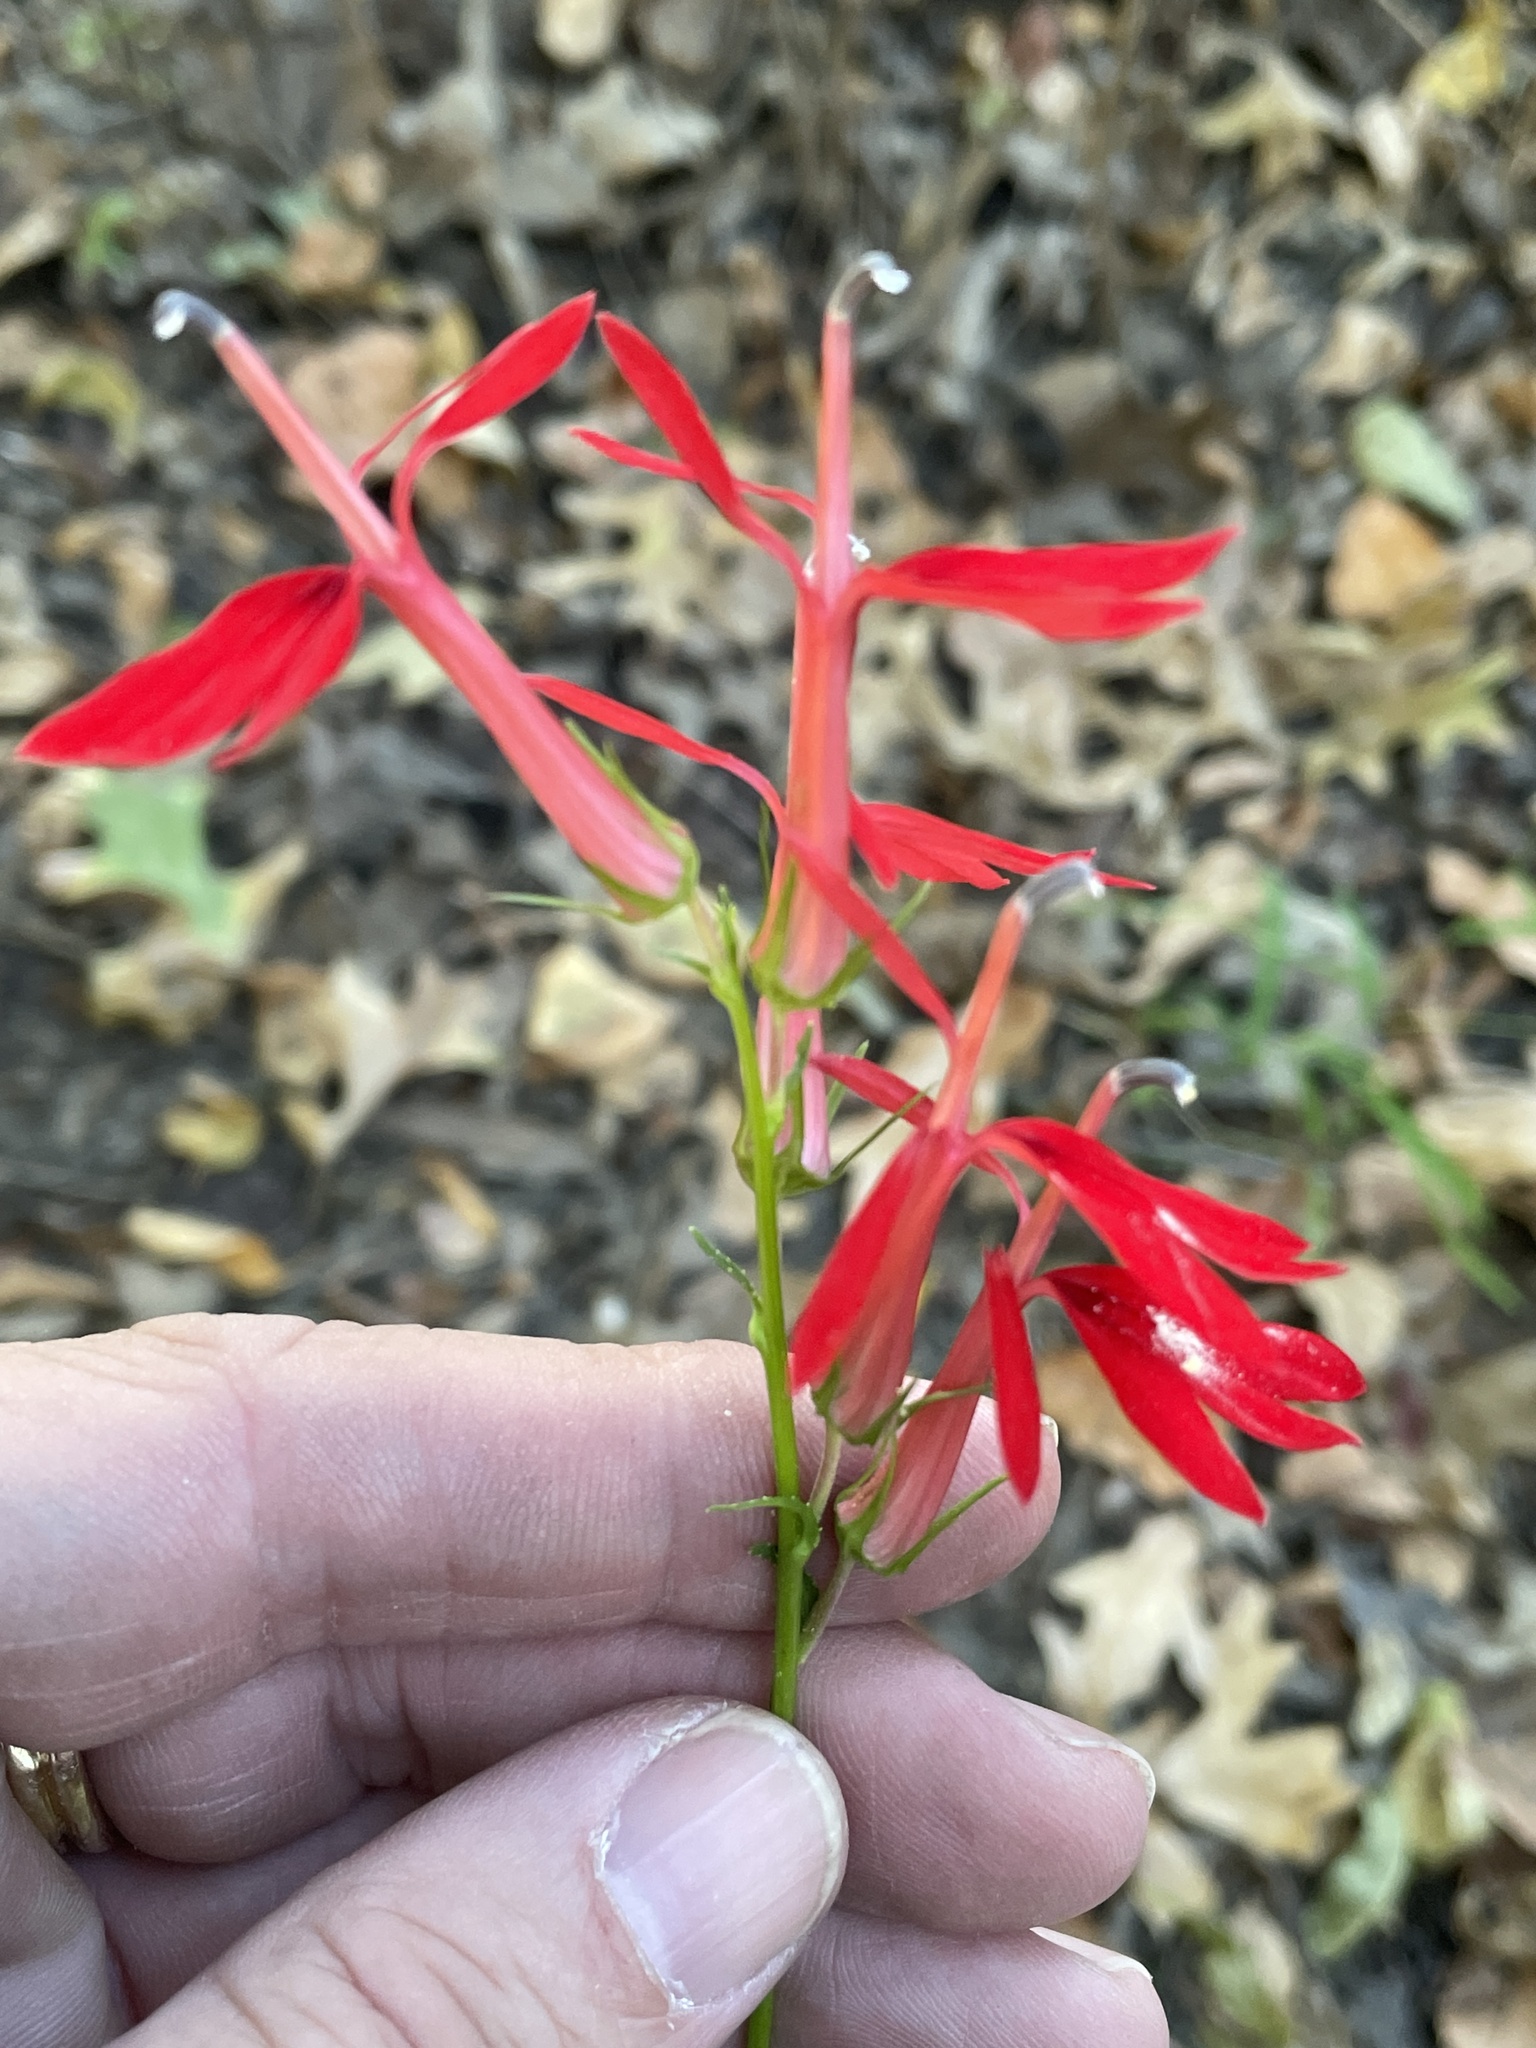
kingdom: Plantae
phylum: Tracheophyta
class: Magnoliopsida
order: Asterales
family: Campanulaceae
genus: Lobelia
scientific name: Lobelia cardinalis
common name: Cardinal flower
